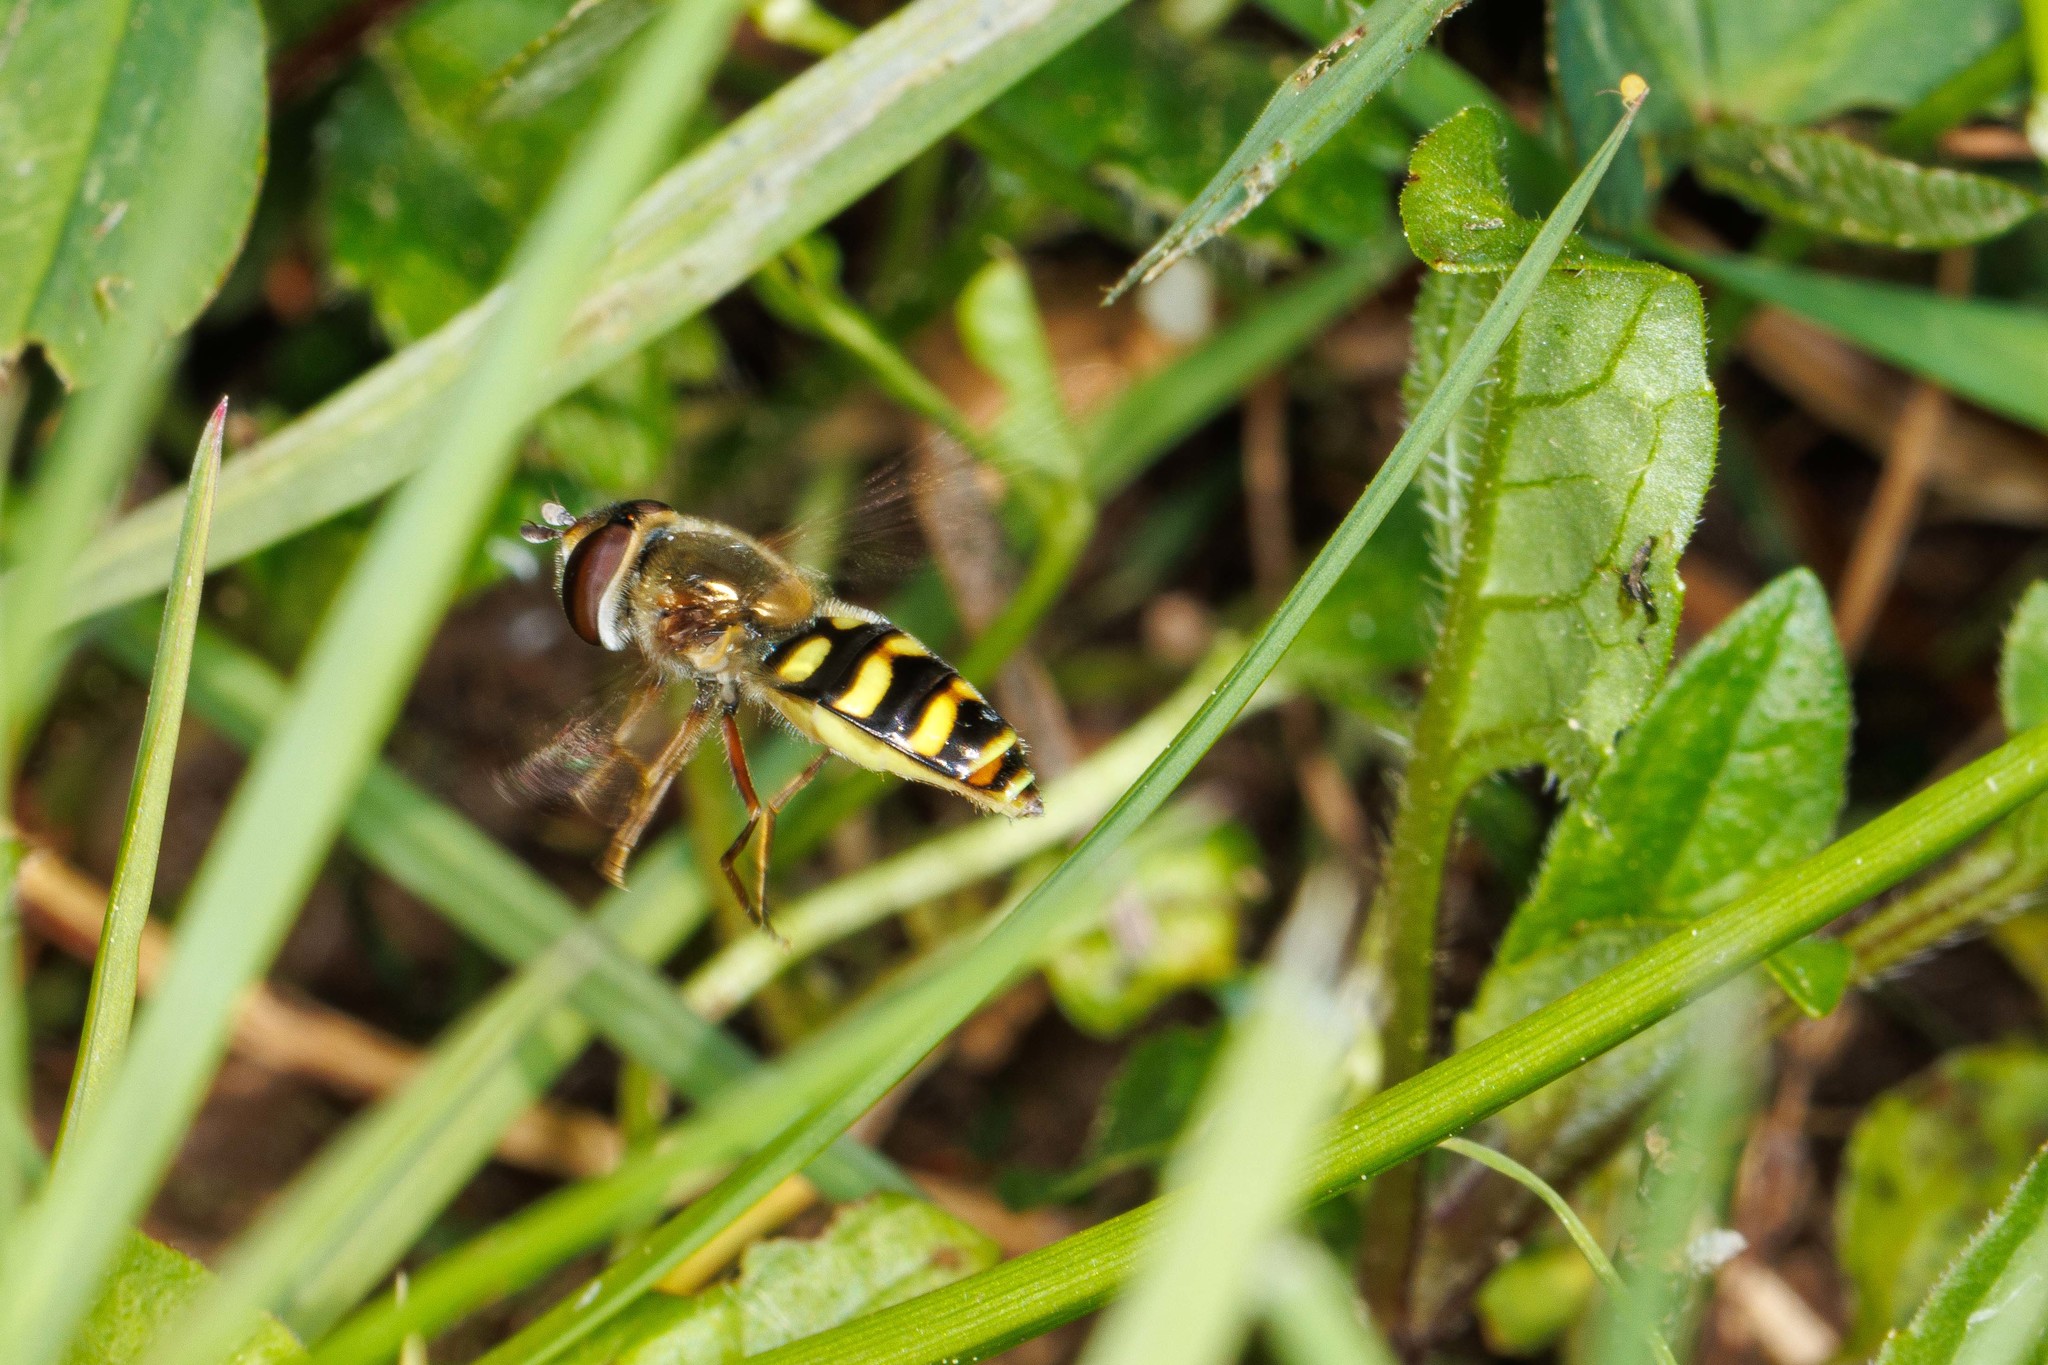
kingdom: Animalia
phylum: Arthropoda
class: Insecta
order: Diptera
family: Syrphidae
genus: Eupeodes
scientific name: Eupeodes fumipennis
